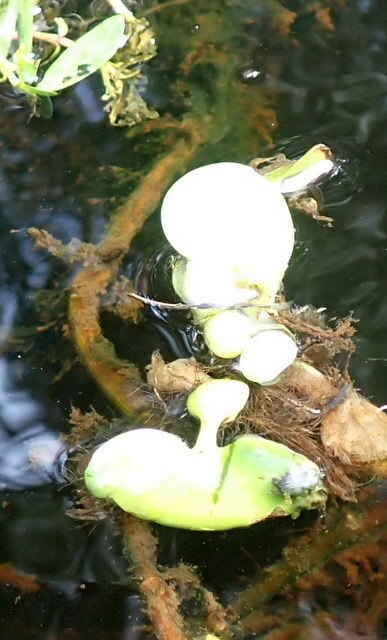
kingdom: Plantae
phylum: Tracheophyta
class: Liliopsida
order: Commelinales
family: Pontederiaceae
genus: Pontederia
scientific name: Pontederia crassipes
